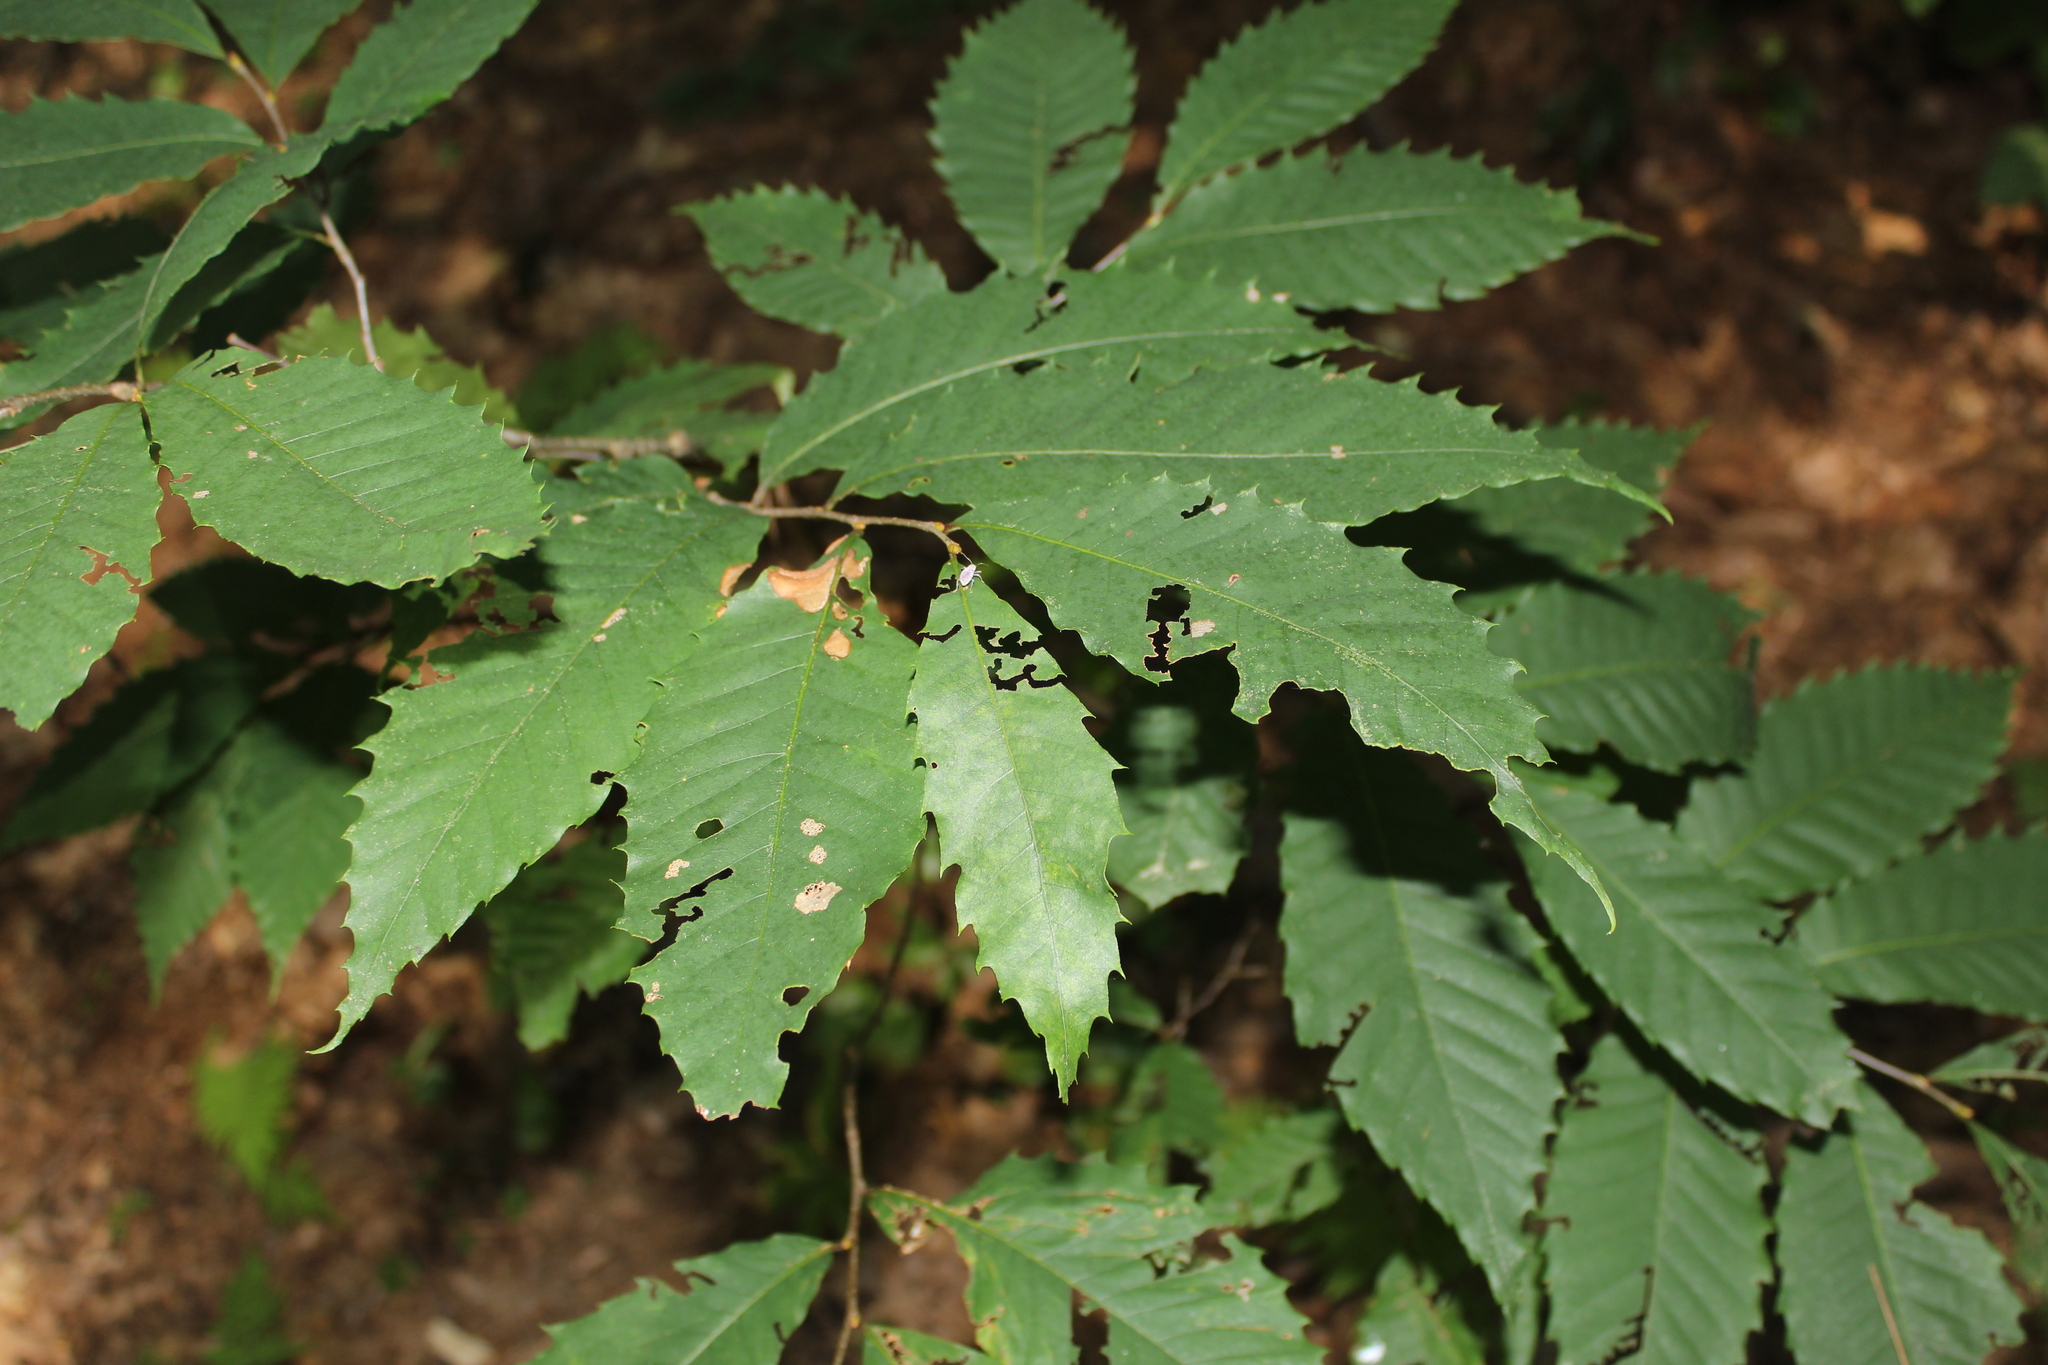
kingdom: Plantae
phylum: Tracheophyta
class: Magnoliopsida
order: Fagales
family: Fagaceae
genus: Castanea
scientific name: Castanea dentata
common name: American chestnut
